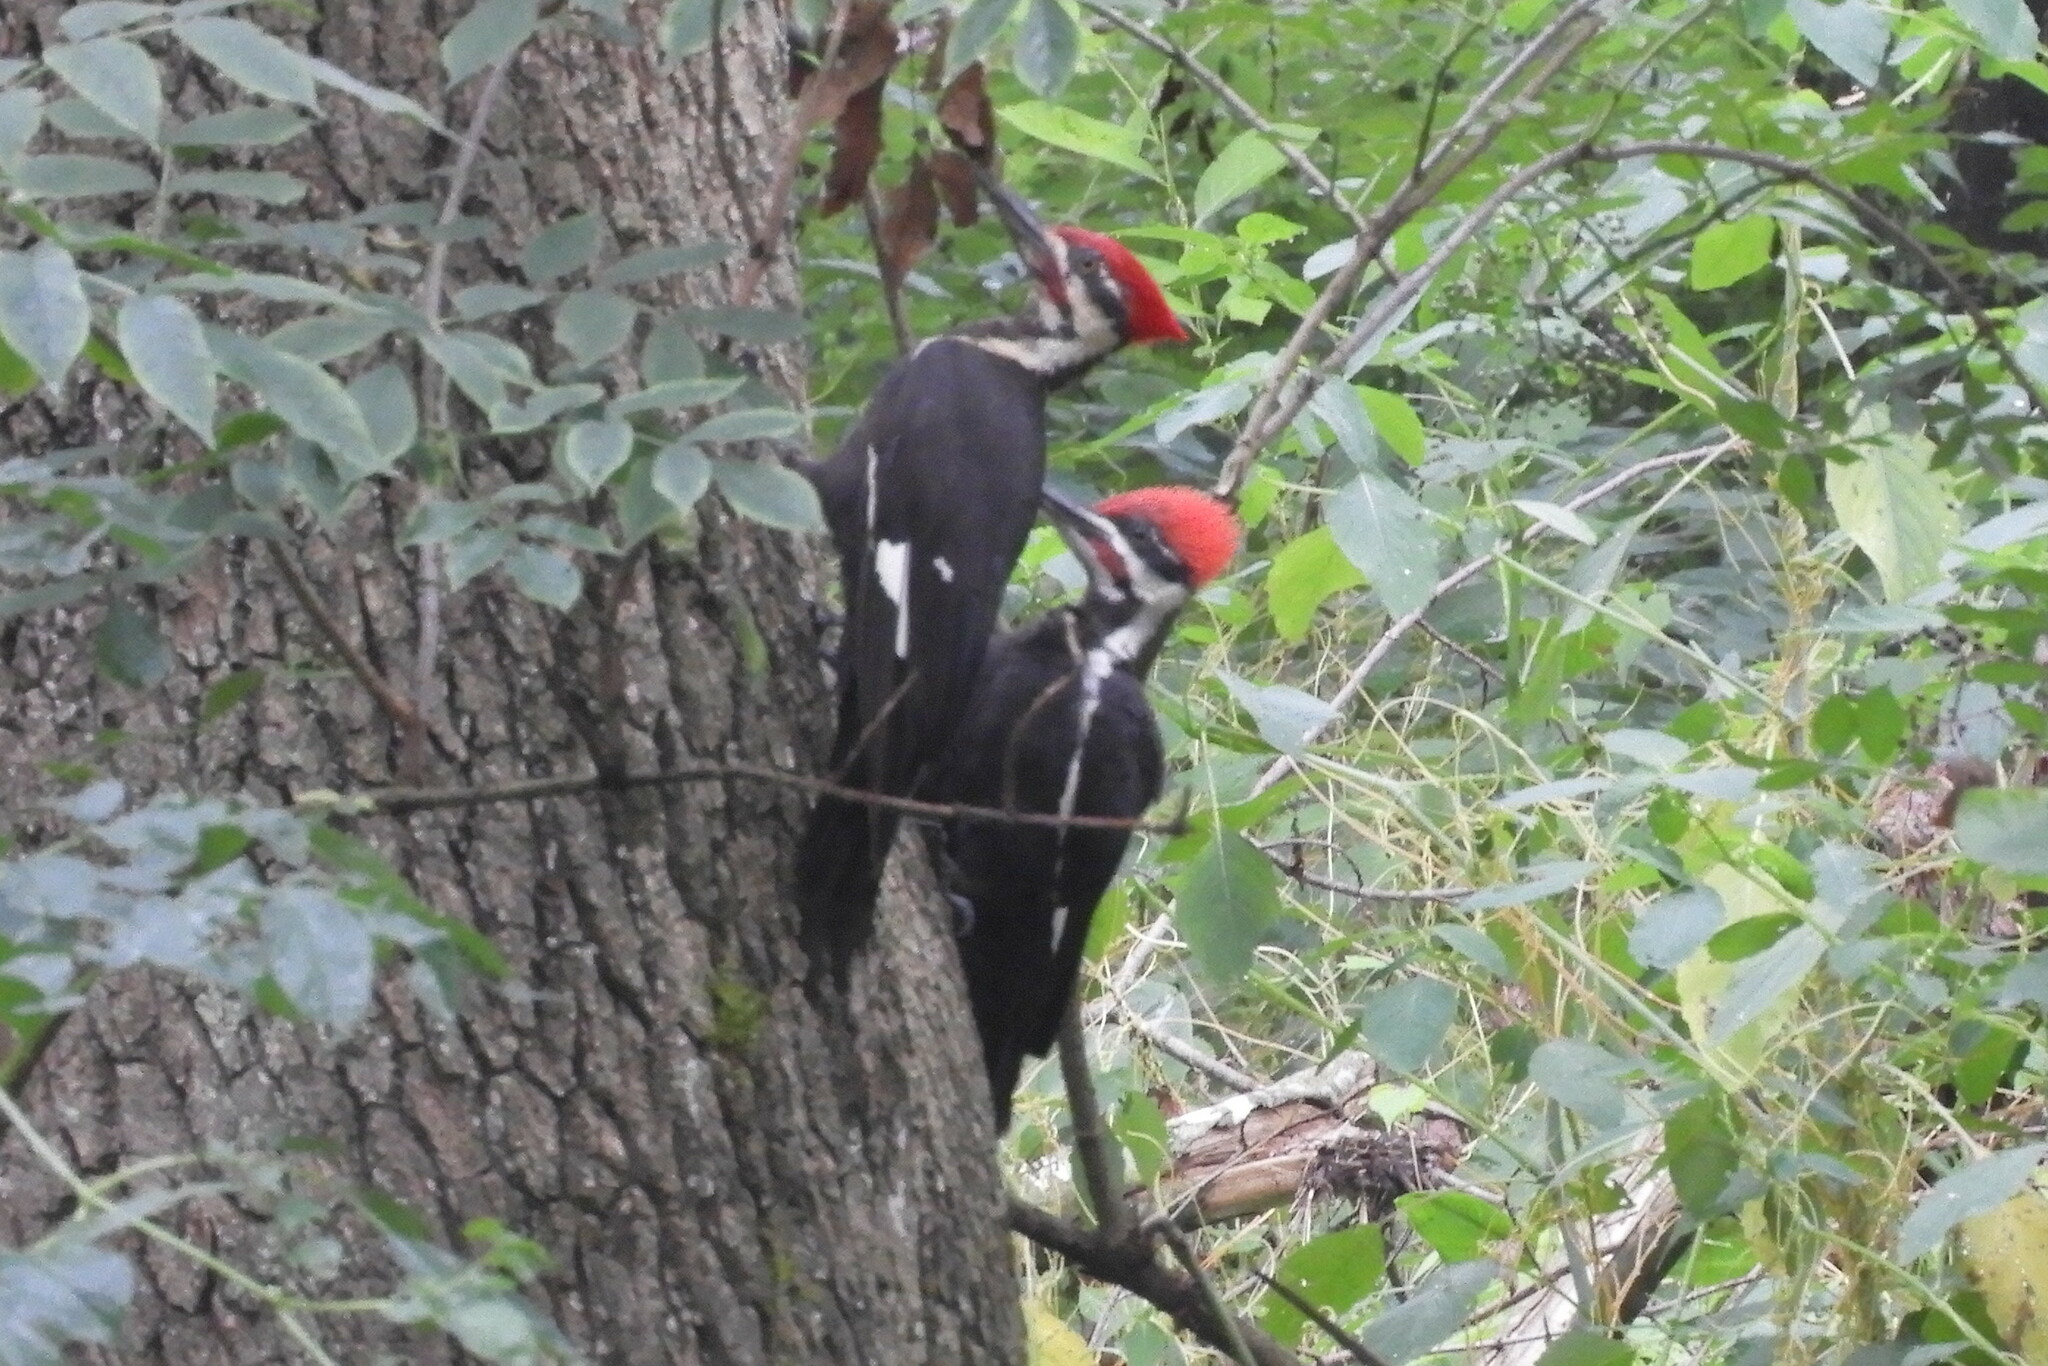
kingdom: Animalia
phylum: Chordata
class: Aves
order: Piciformes
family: Picidae
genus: Dryocopus
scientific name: Dryocopus pileatus
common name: Pileated woodpecker
